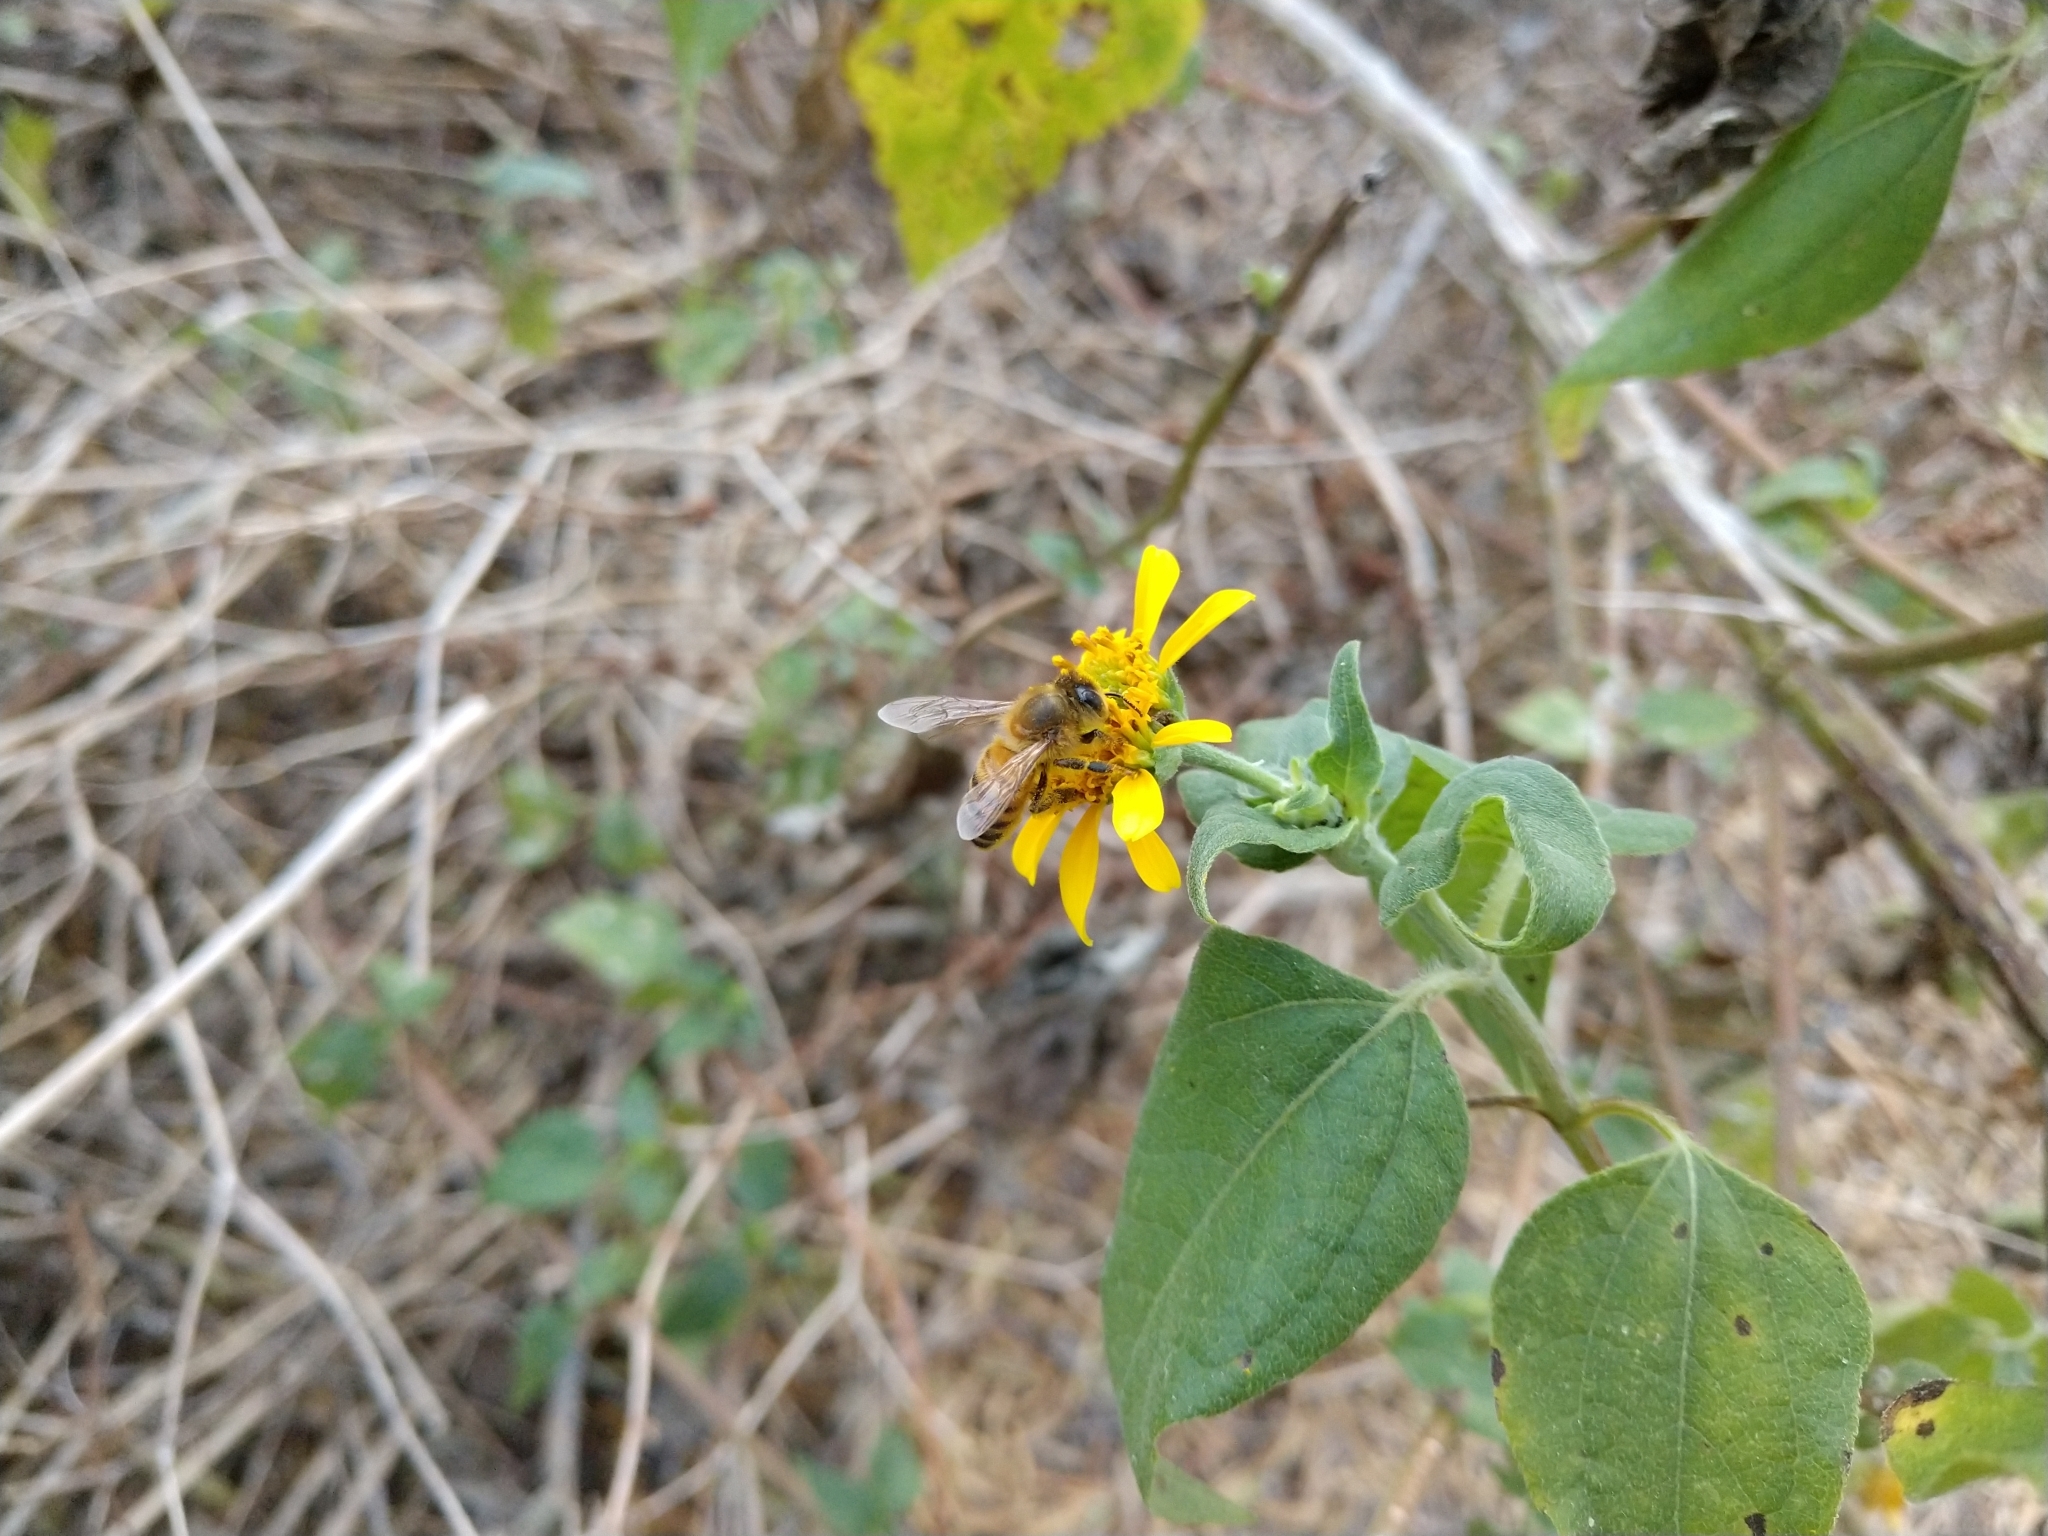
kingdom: Animalia
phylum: Arthropoda
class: Insecta
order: Hymenoptera
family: Apidae
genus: Apis
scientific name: Apis mellifera
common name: Honey bee
